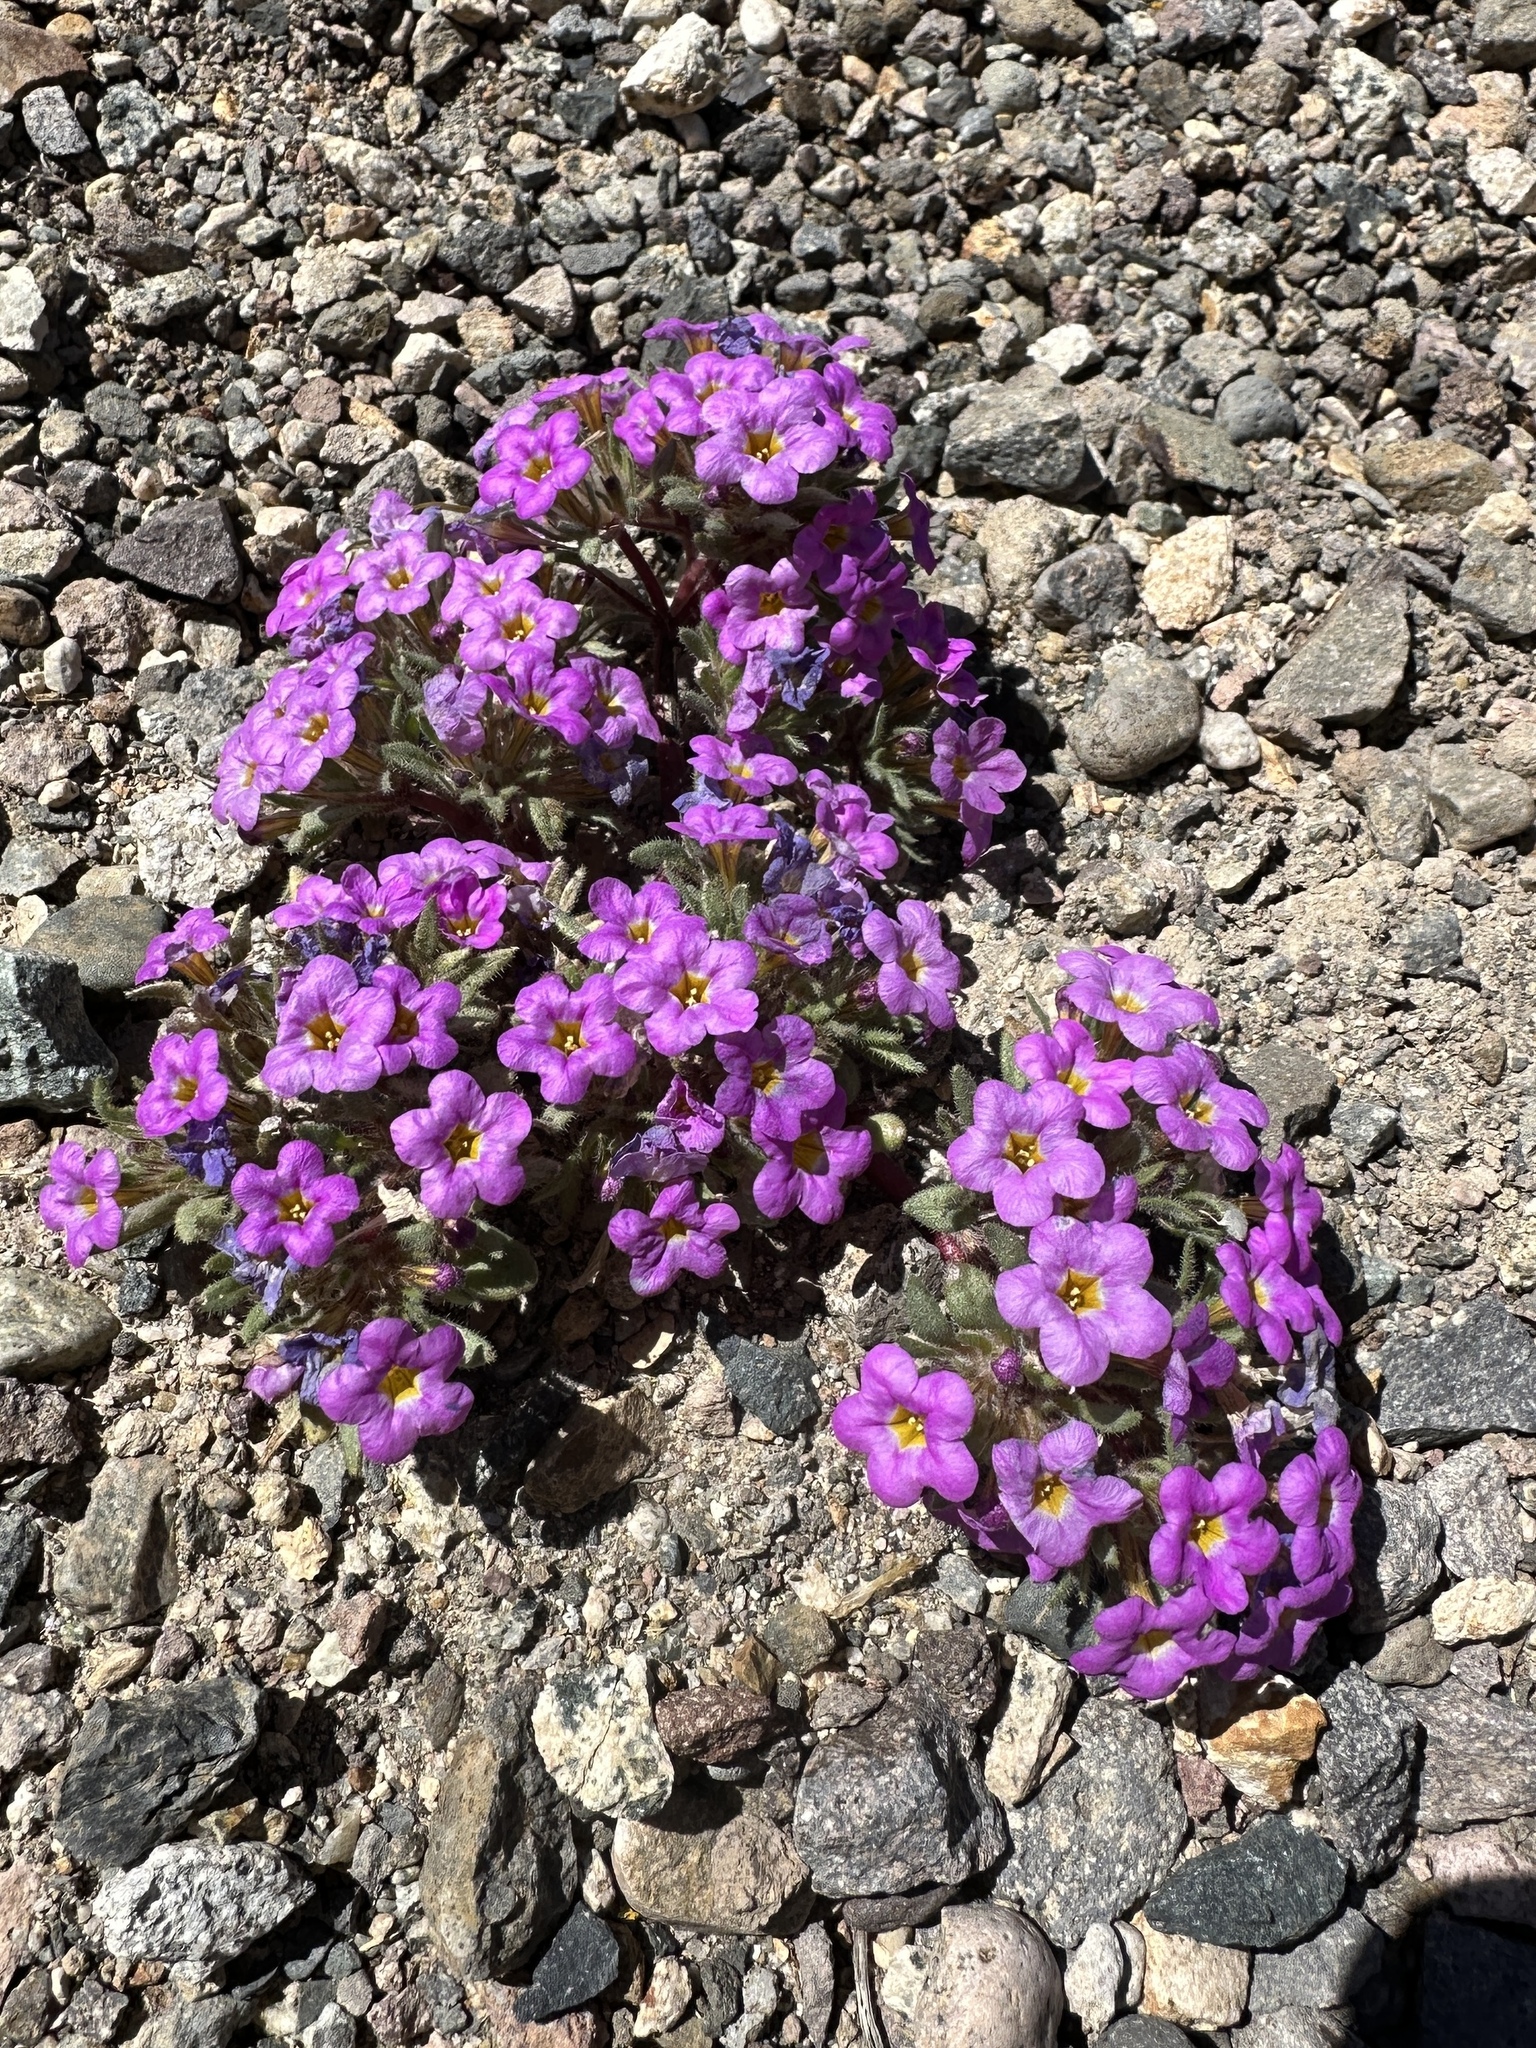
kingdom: Plantae
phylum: Tracheophyta
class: Magnoliopsida
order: Boraginales
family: Namaceae
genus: Nama
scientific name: Nama aretioides
